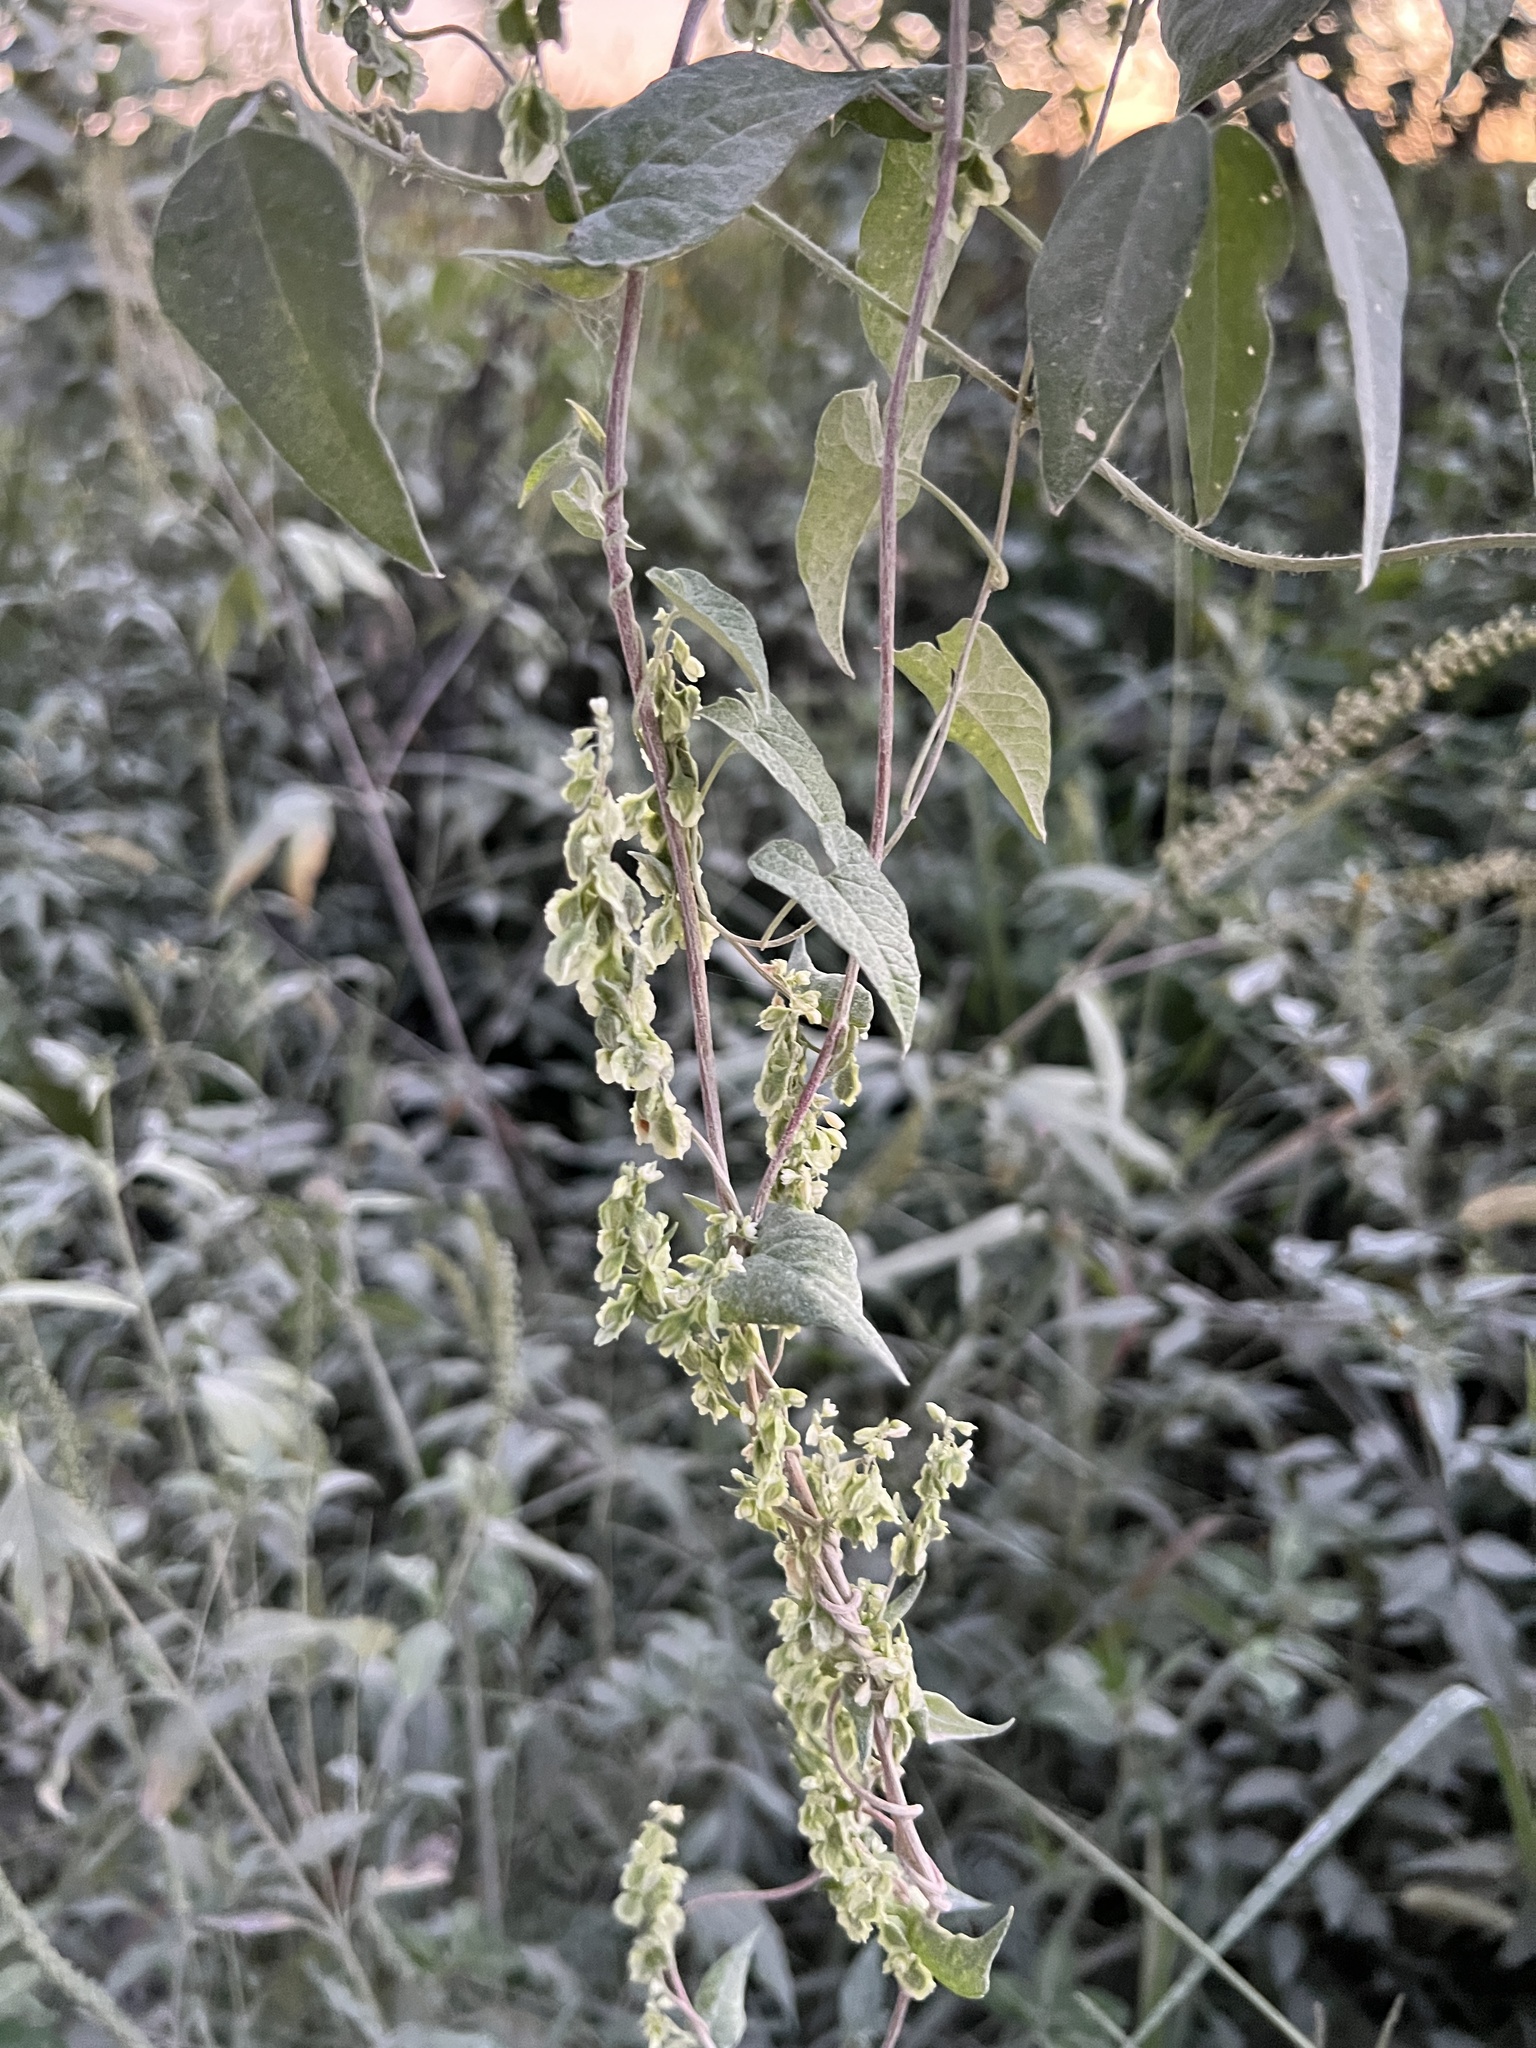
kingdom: Plantae
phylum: Tracheophyta
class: Magnoliopsida
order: Caryophyllales
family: Polygonaceae
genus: Fallopia
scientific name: Fallopia scandens
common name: Climbing false buckwheat
